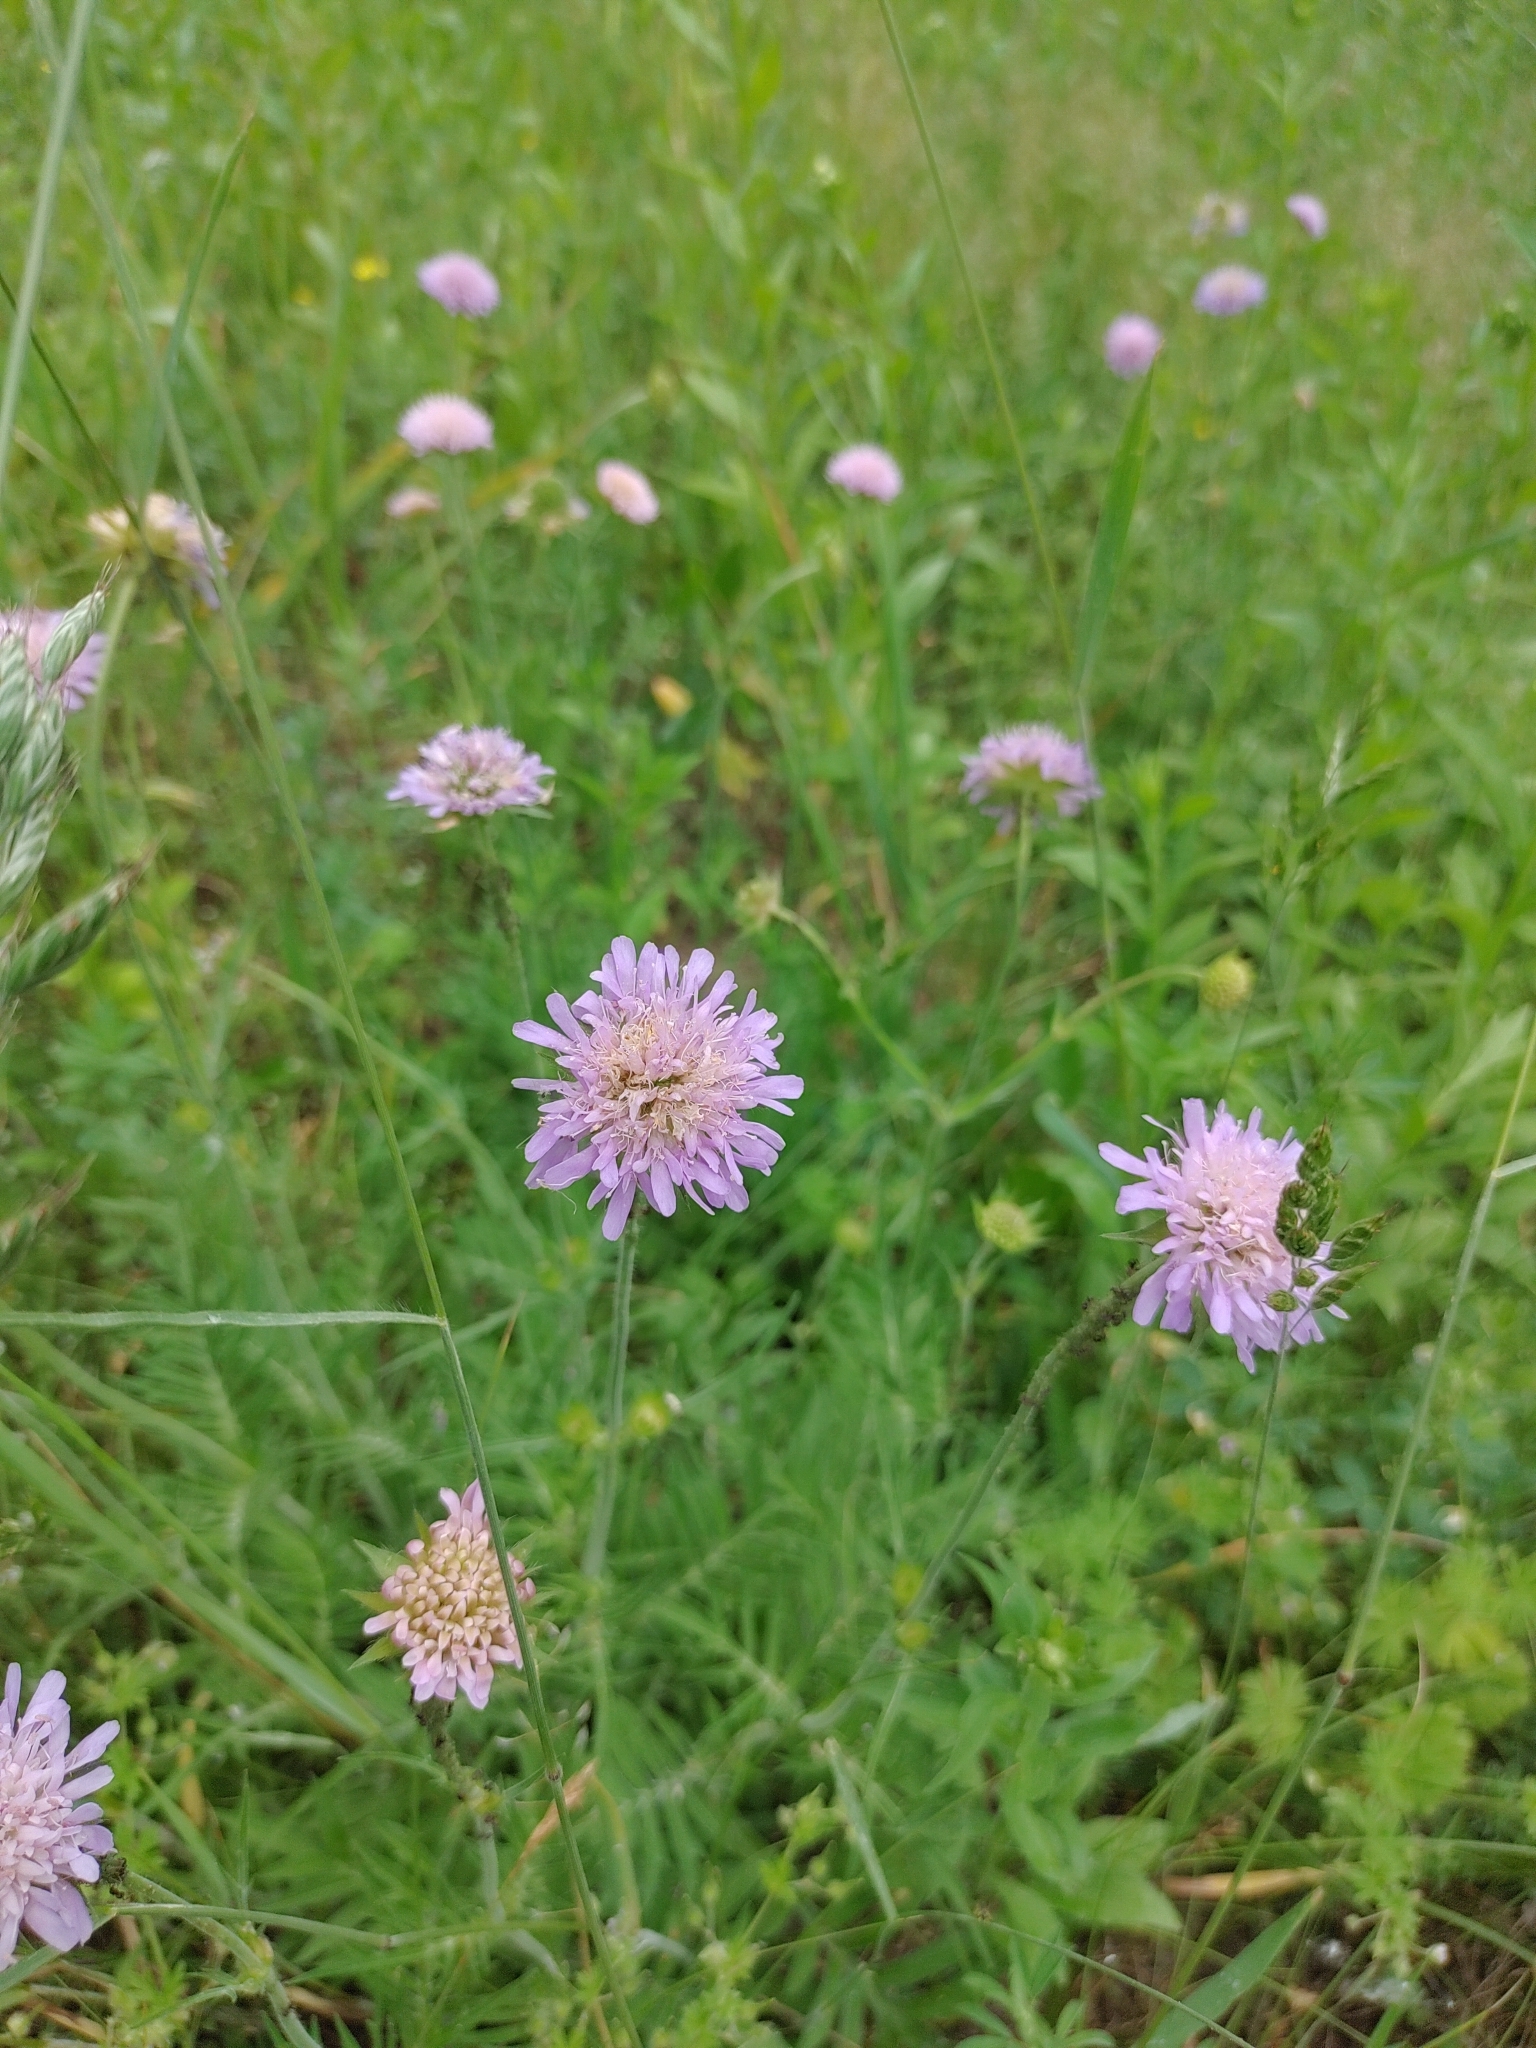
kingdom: Plantae
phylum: Tracheophyta
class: Magnoliopsida
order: Dipsacales
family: Caprifoliaceae
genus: Knautia
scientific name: Knautia arvensis
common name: Field scabiosa
